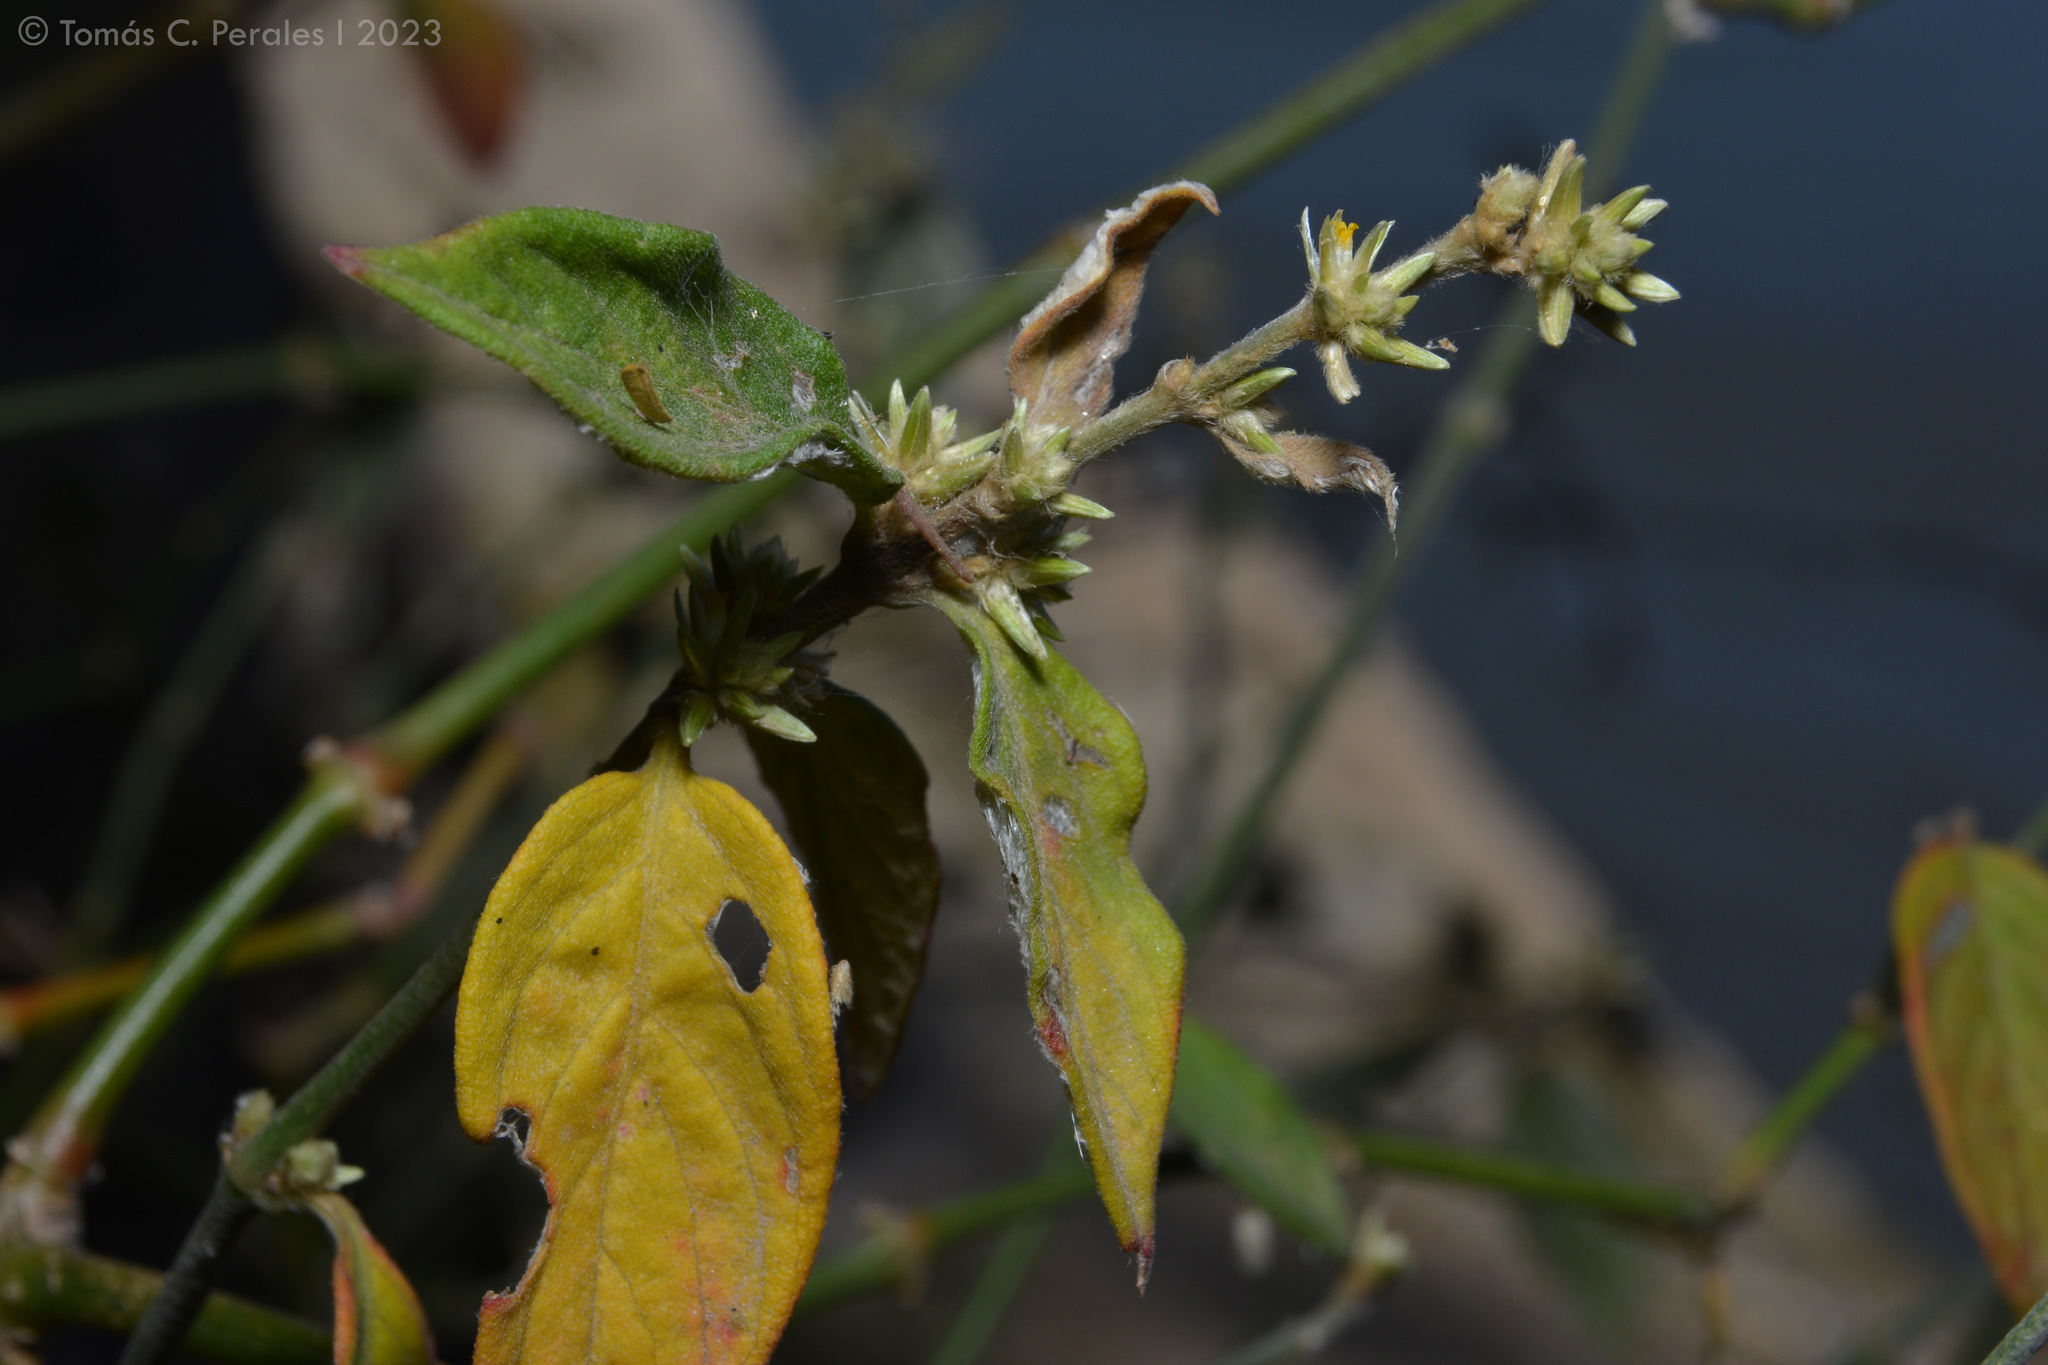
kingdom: Plantae
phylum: Tracheophyta
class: Magnoliopsida
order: Caryophyllales
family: Amaranthaceae
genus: Alternanthera
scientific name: Alternanthera lanceolata
